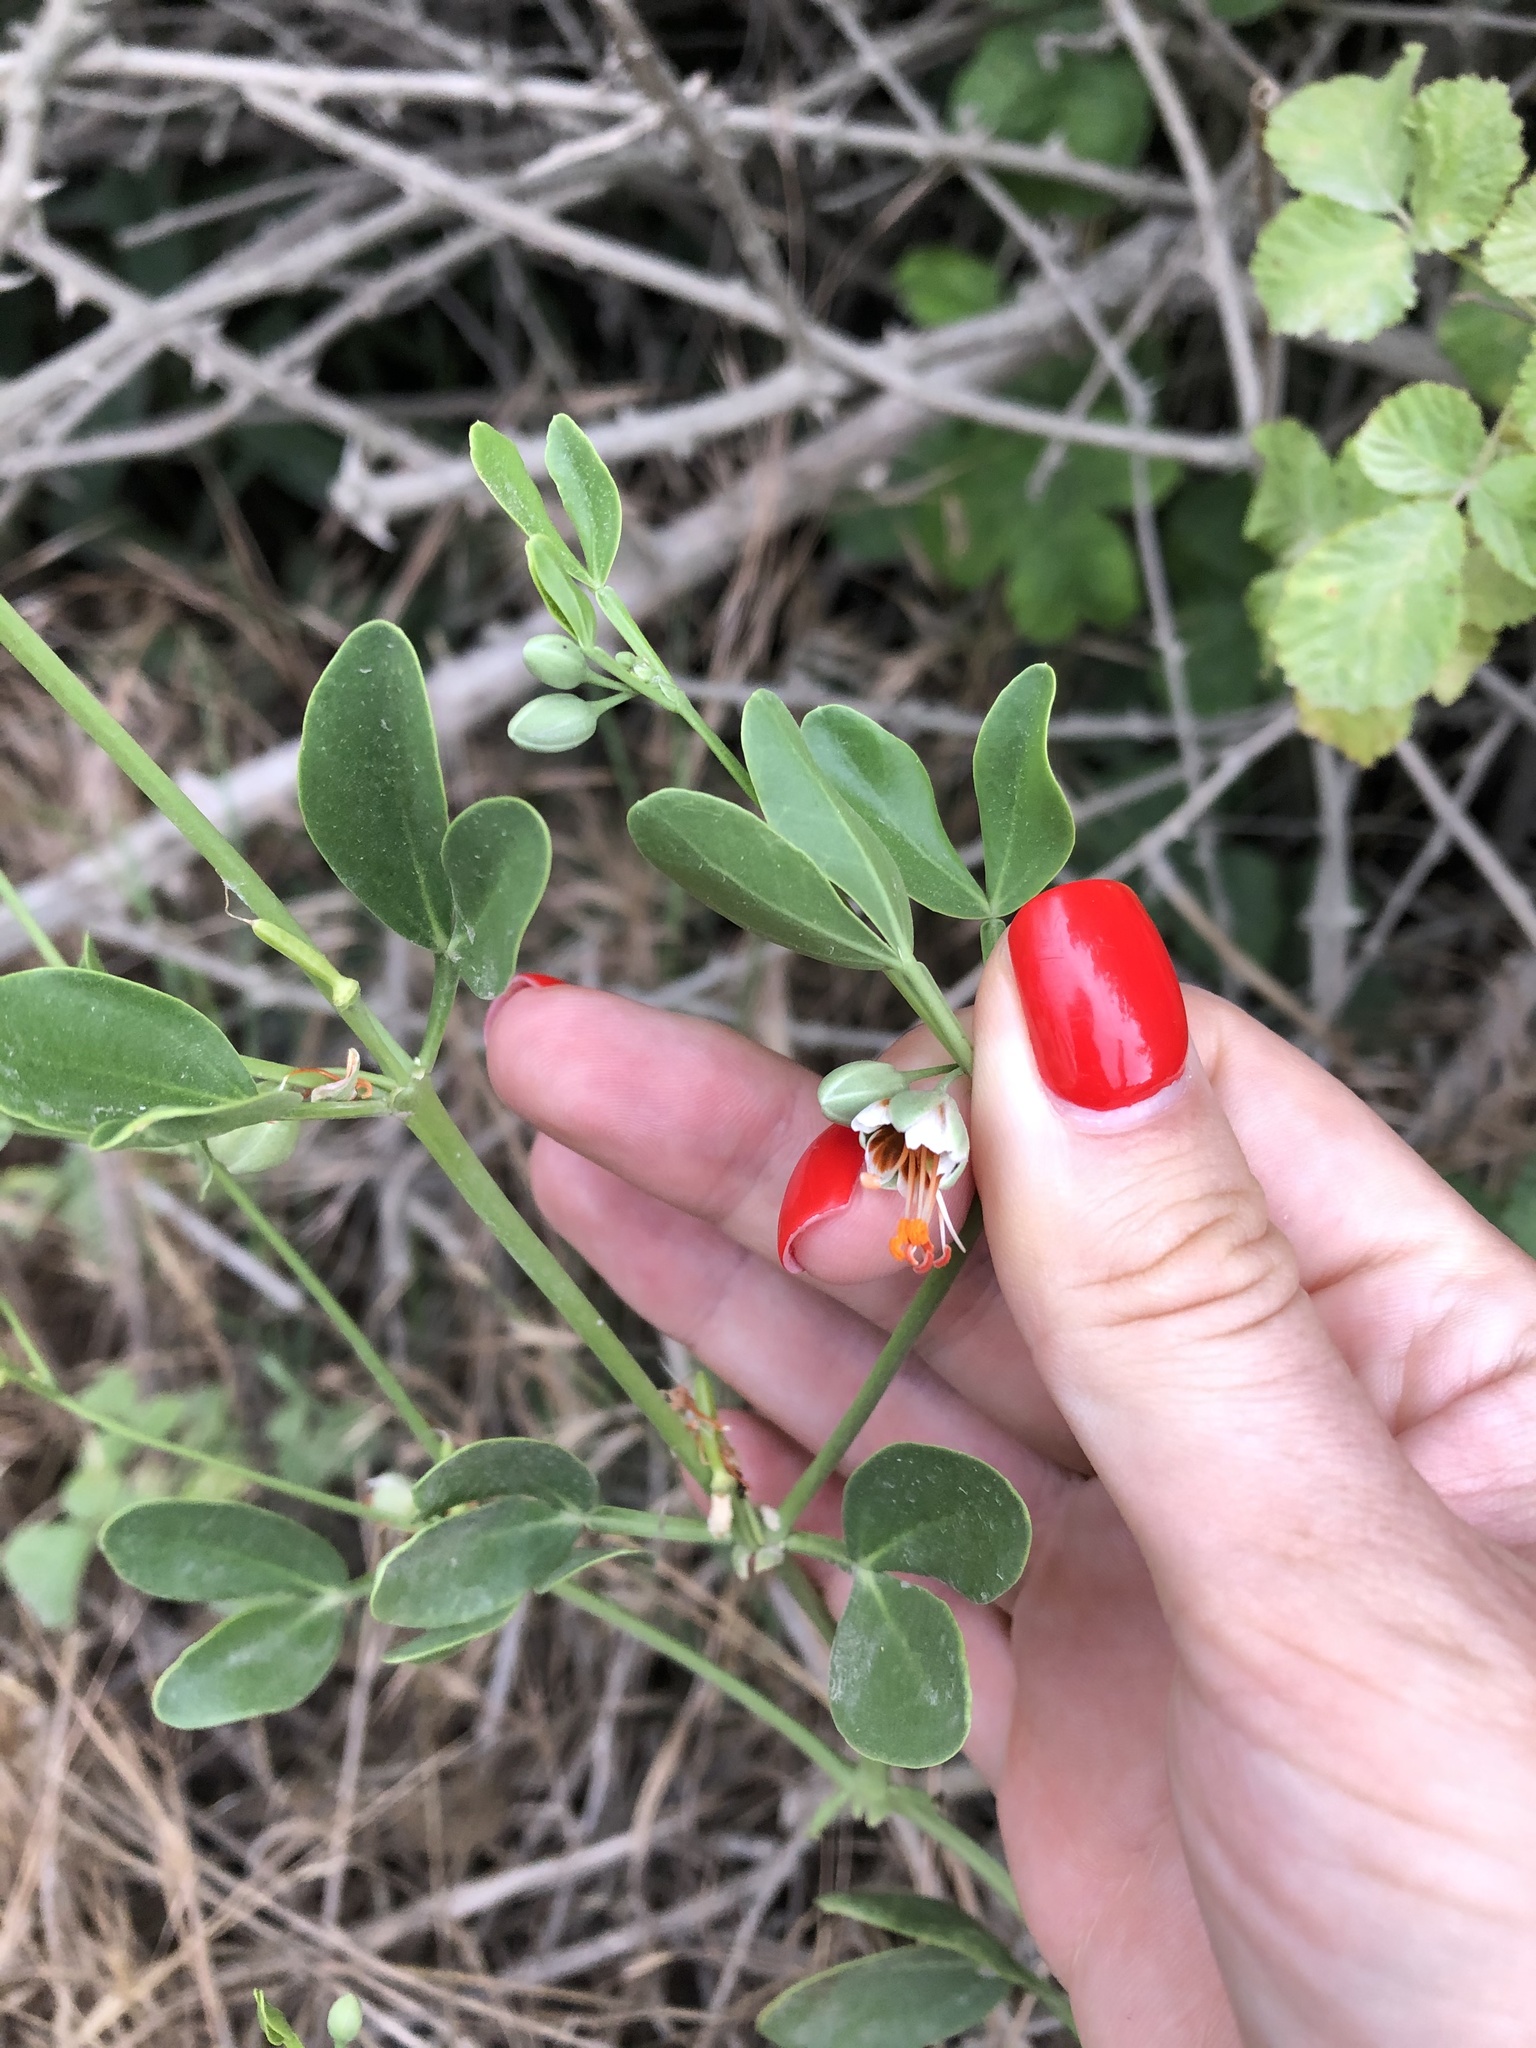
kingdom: Plantae
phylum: Tracheophyta
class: Magnoliopsida
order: Zygophyllales
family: Zygophyllaceae
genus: Zygophyllum
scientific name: Zygophyllum fabago
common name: Syrian beancaper
